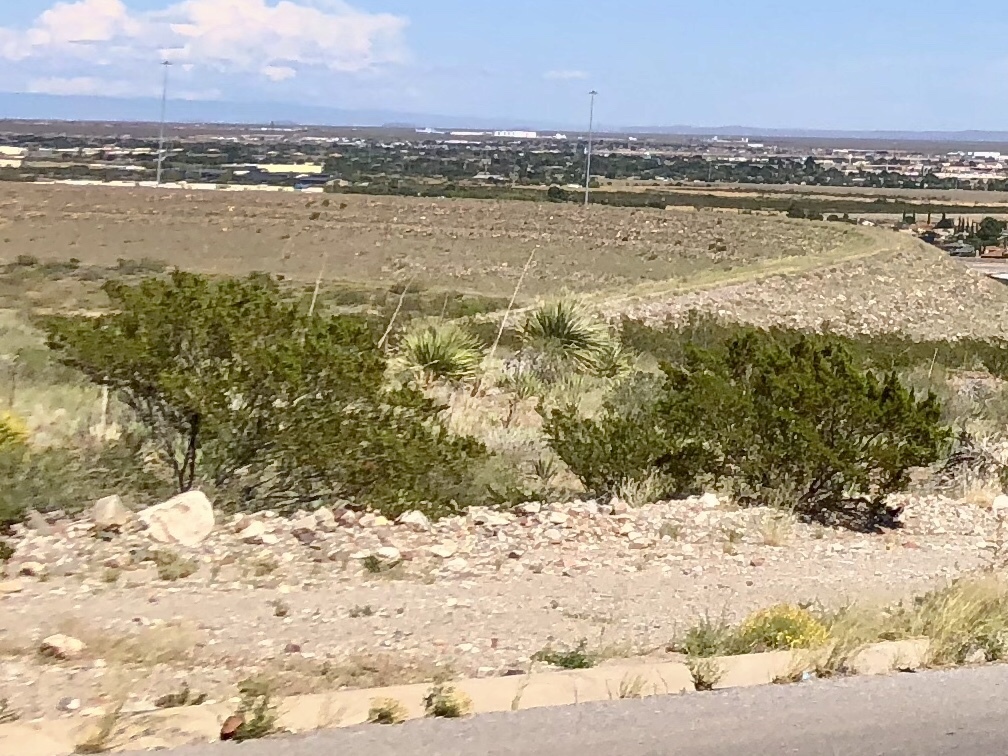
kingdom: Plantae
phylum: Tracheophyta
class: Magnoliopsida
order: Zygophyllales
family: Zygophyllaceae
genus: Larrea
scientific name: Larrea tridentata
